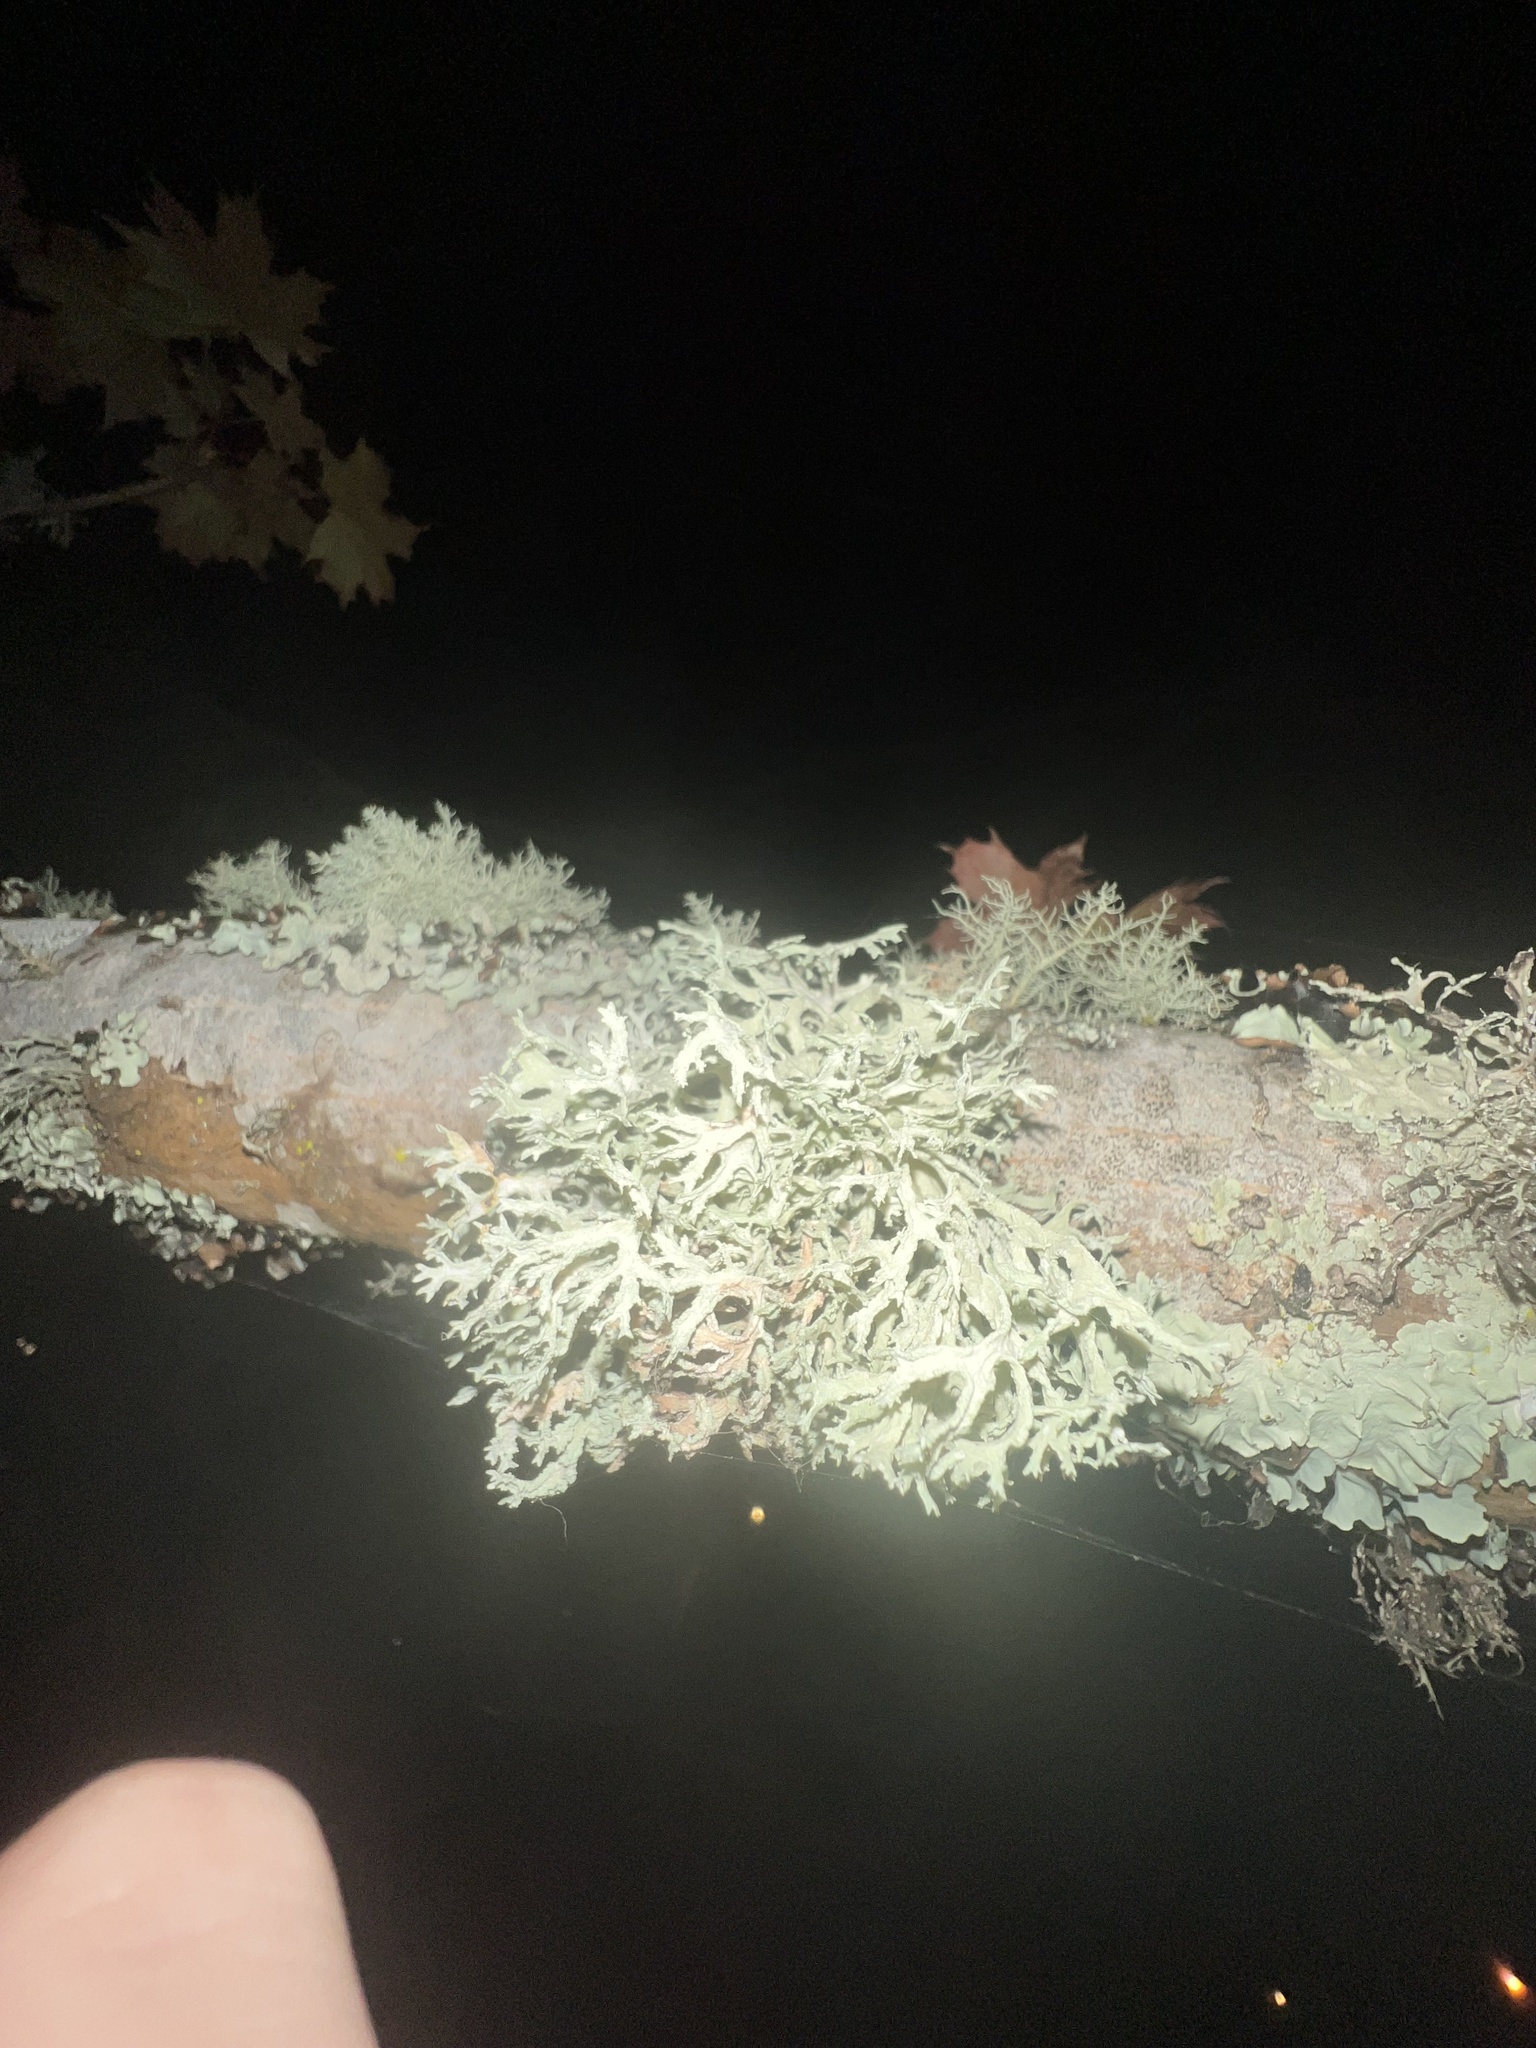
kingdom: Fungi
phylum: Ascomycota
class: Lecanoromycetes
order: Lecanorales
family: Parmeliaceae
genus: Evernia
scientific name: Evernia prunastri
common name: Oak moss
